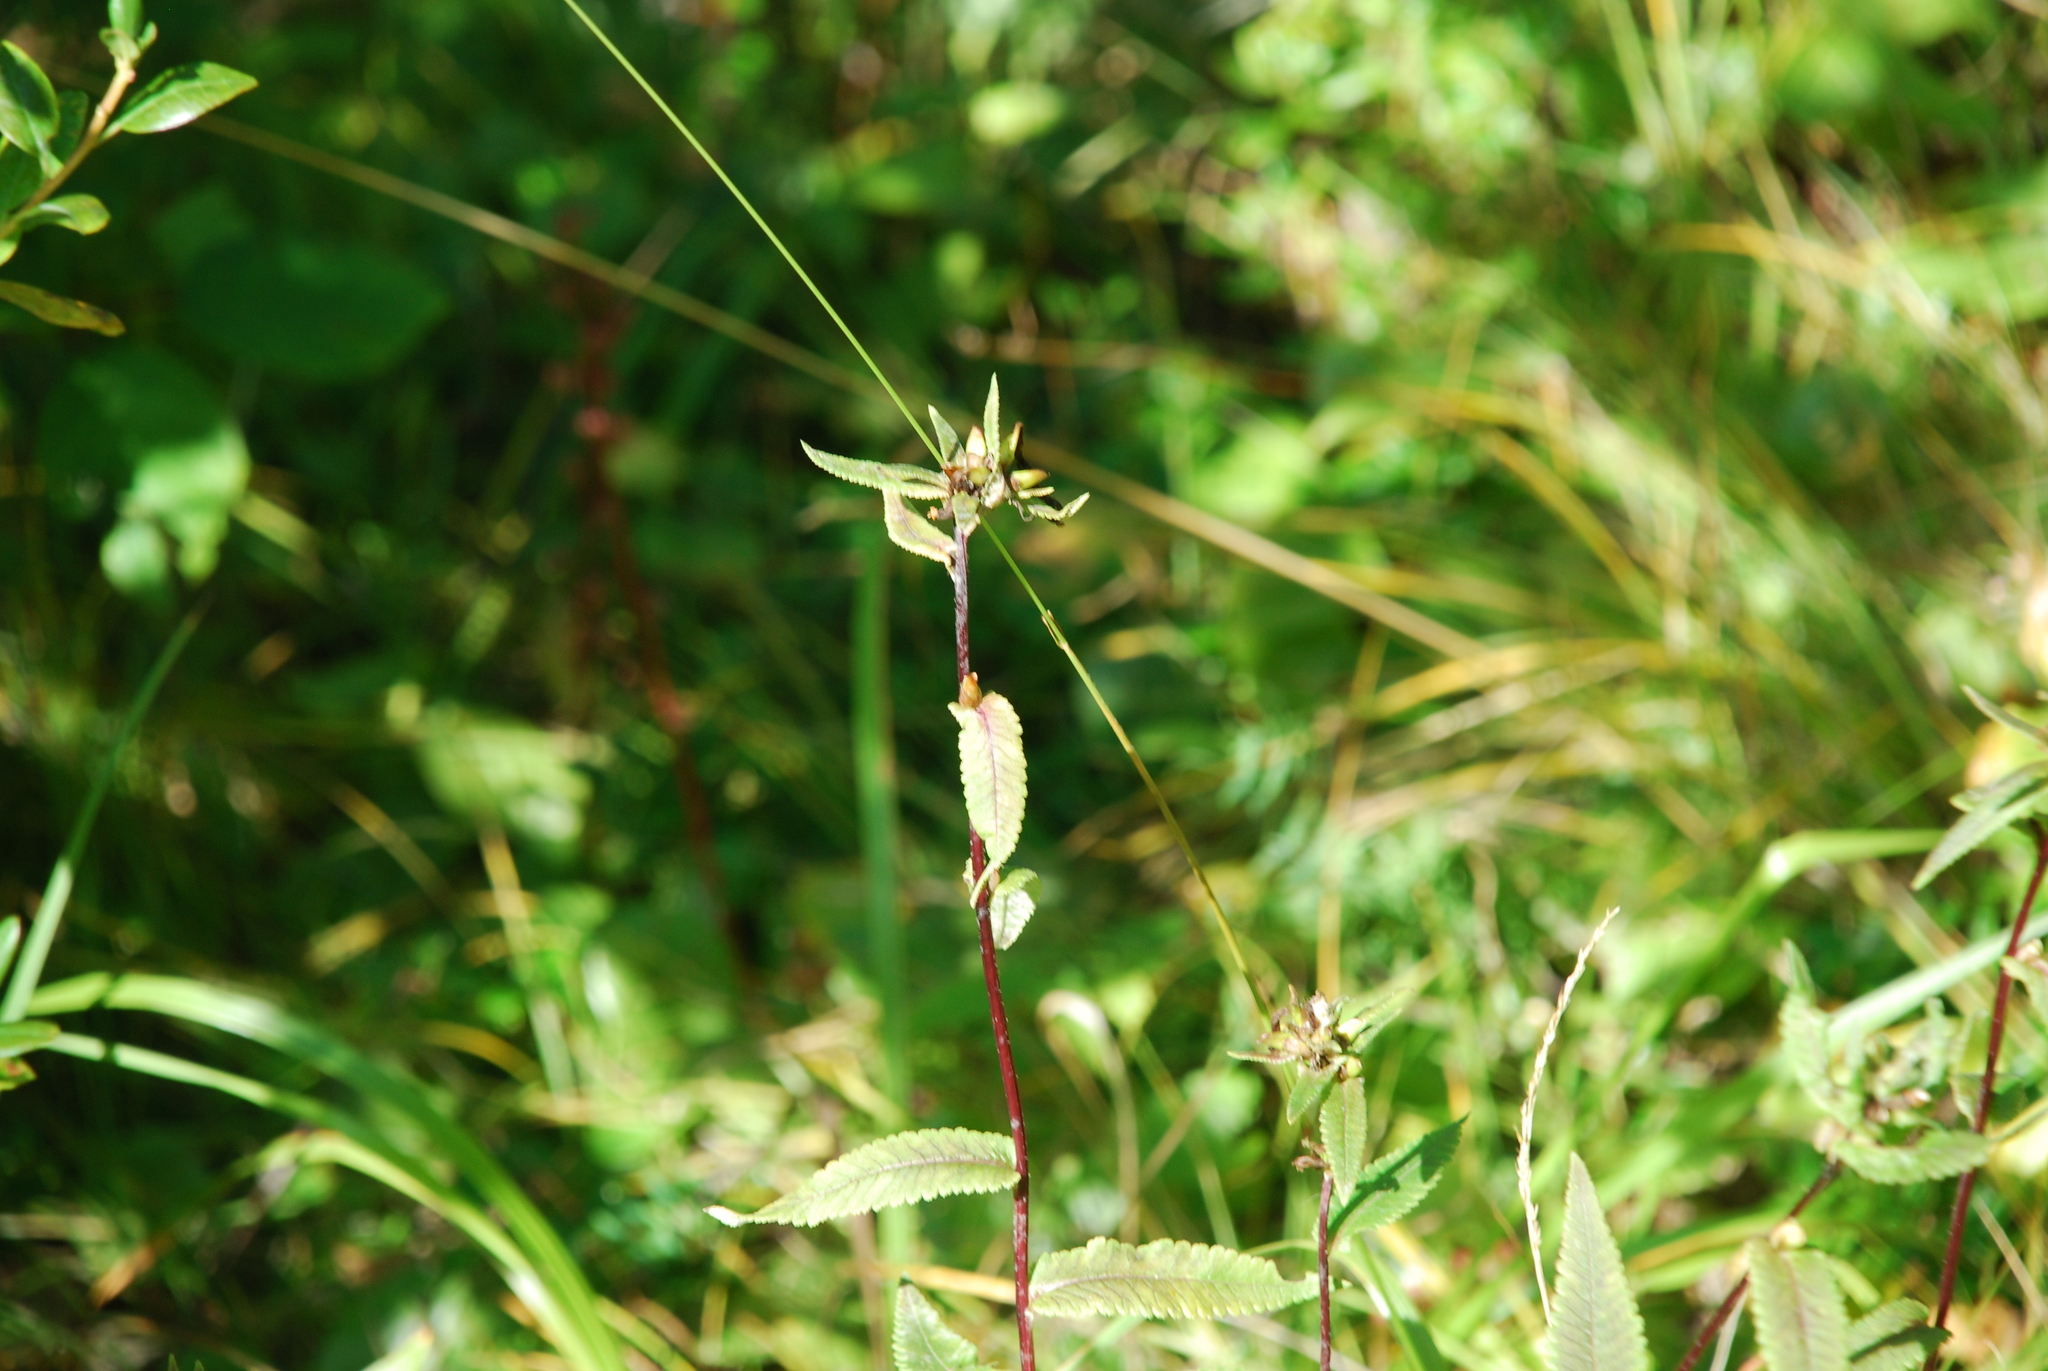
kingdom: Plantae
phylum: Tracheophyta
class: Magnoliopsida
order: Lamiales
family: Orobanchaceae
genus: Pedicularis
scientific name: Pedicularis resupinata
